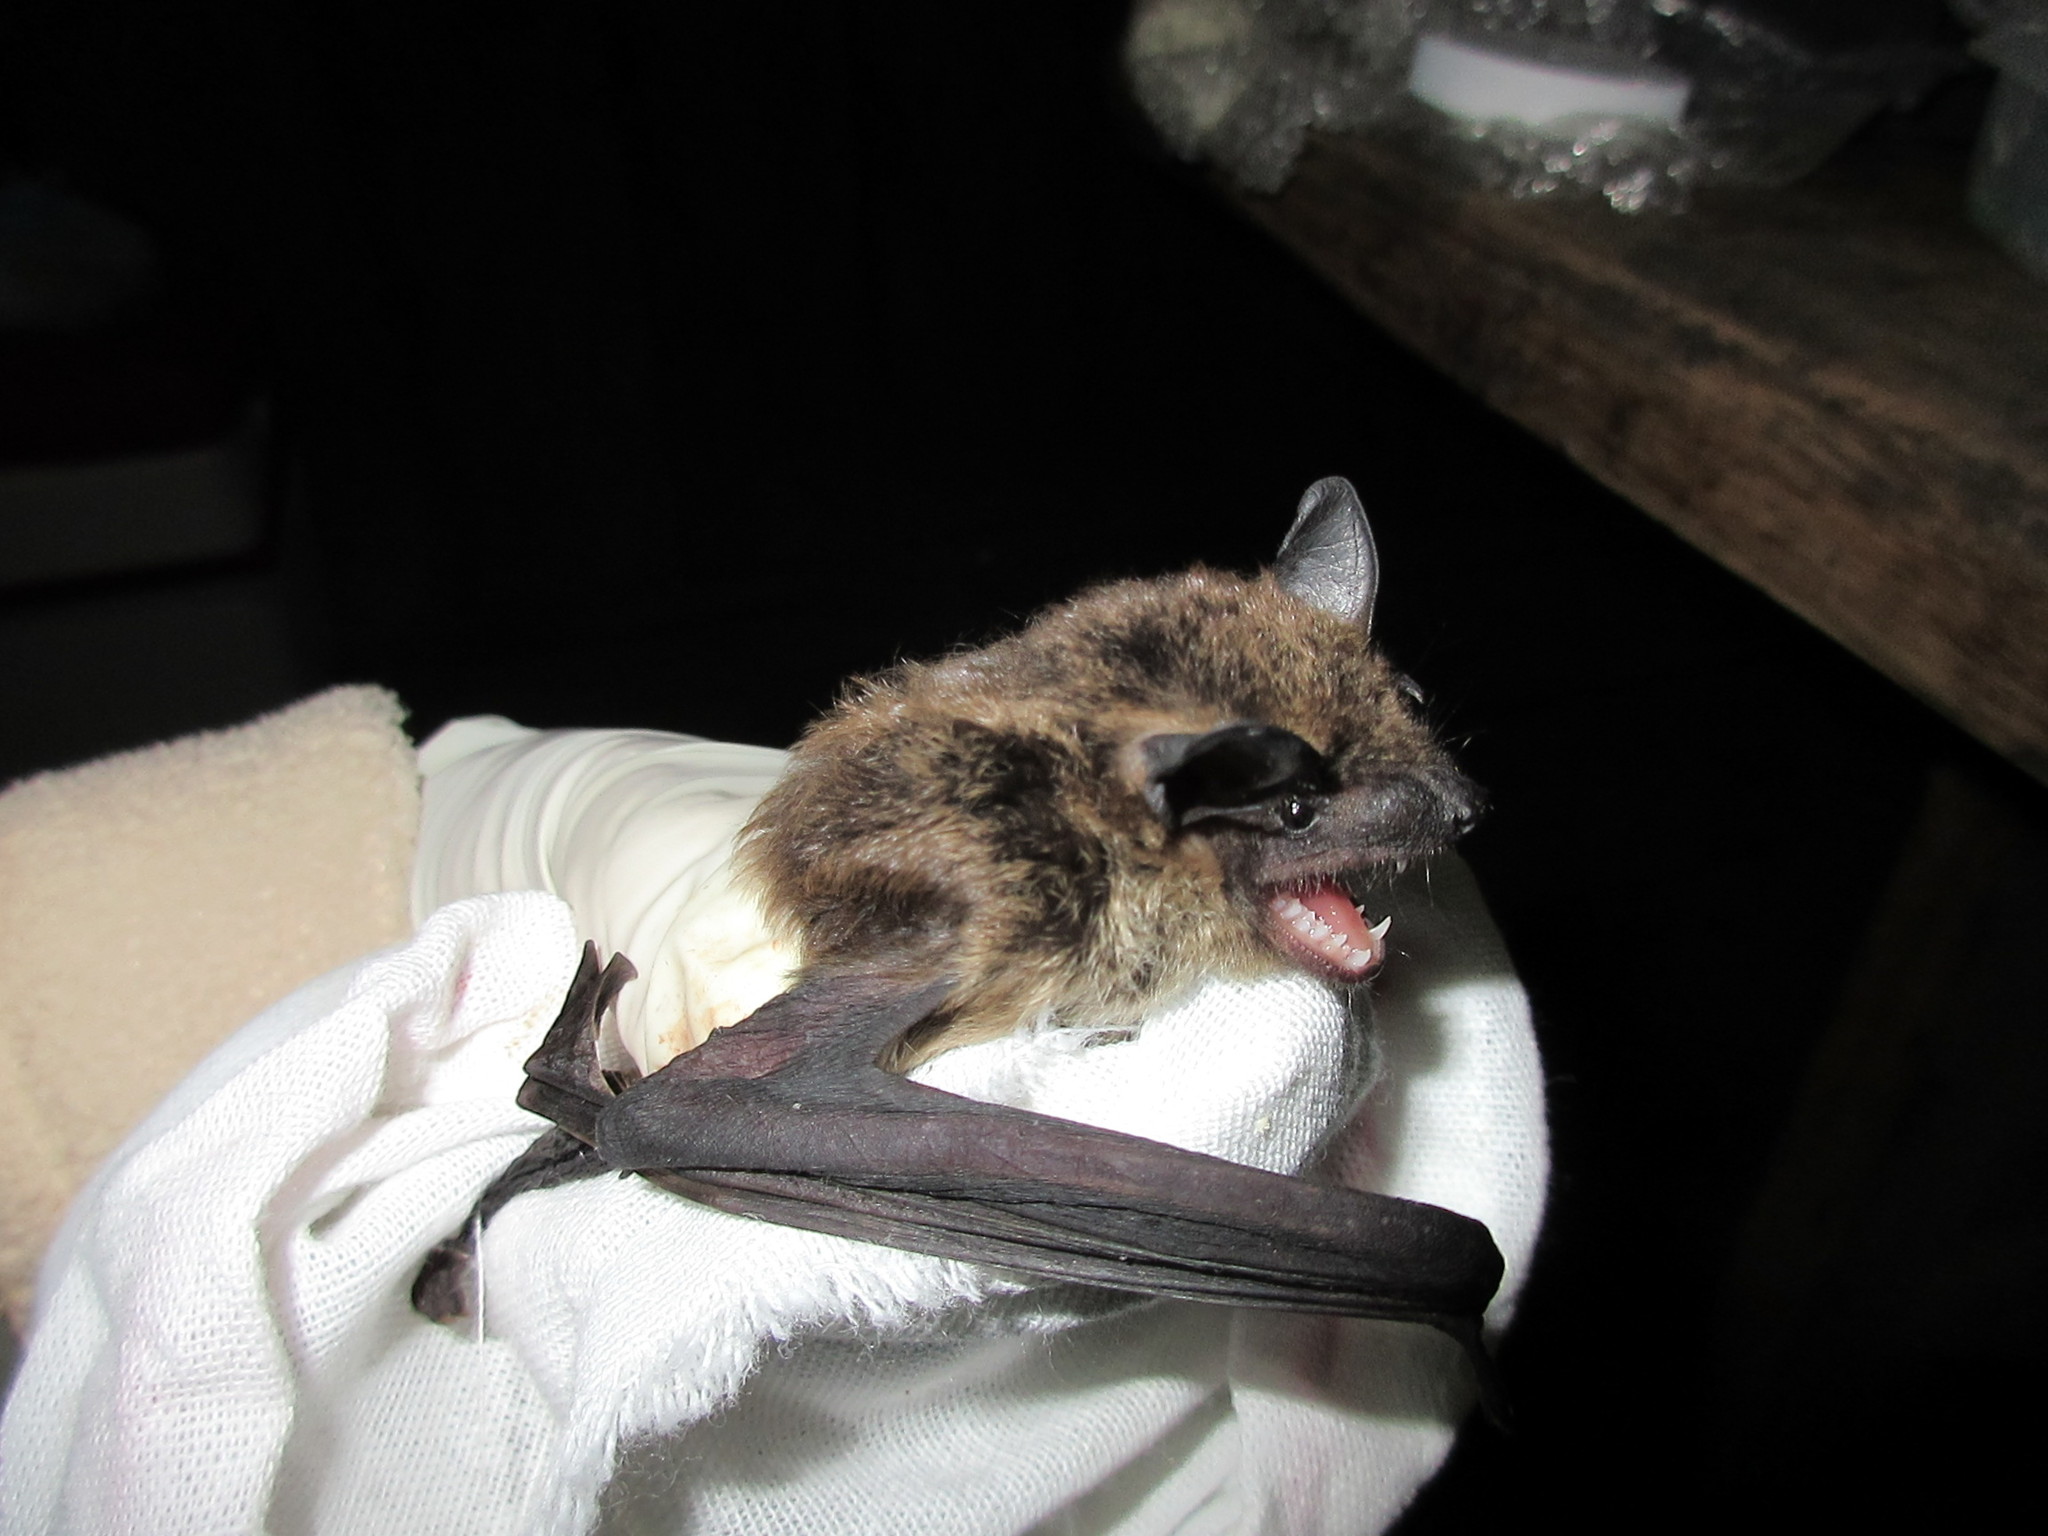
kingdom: Animalia
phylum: Chordata
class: Mammalia
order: Chiroptera
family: Vespertilionidae
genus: Eptesicus
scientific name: Eptesicus fuscus
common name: Big brown bat
